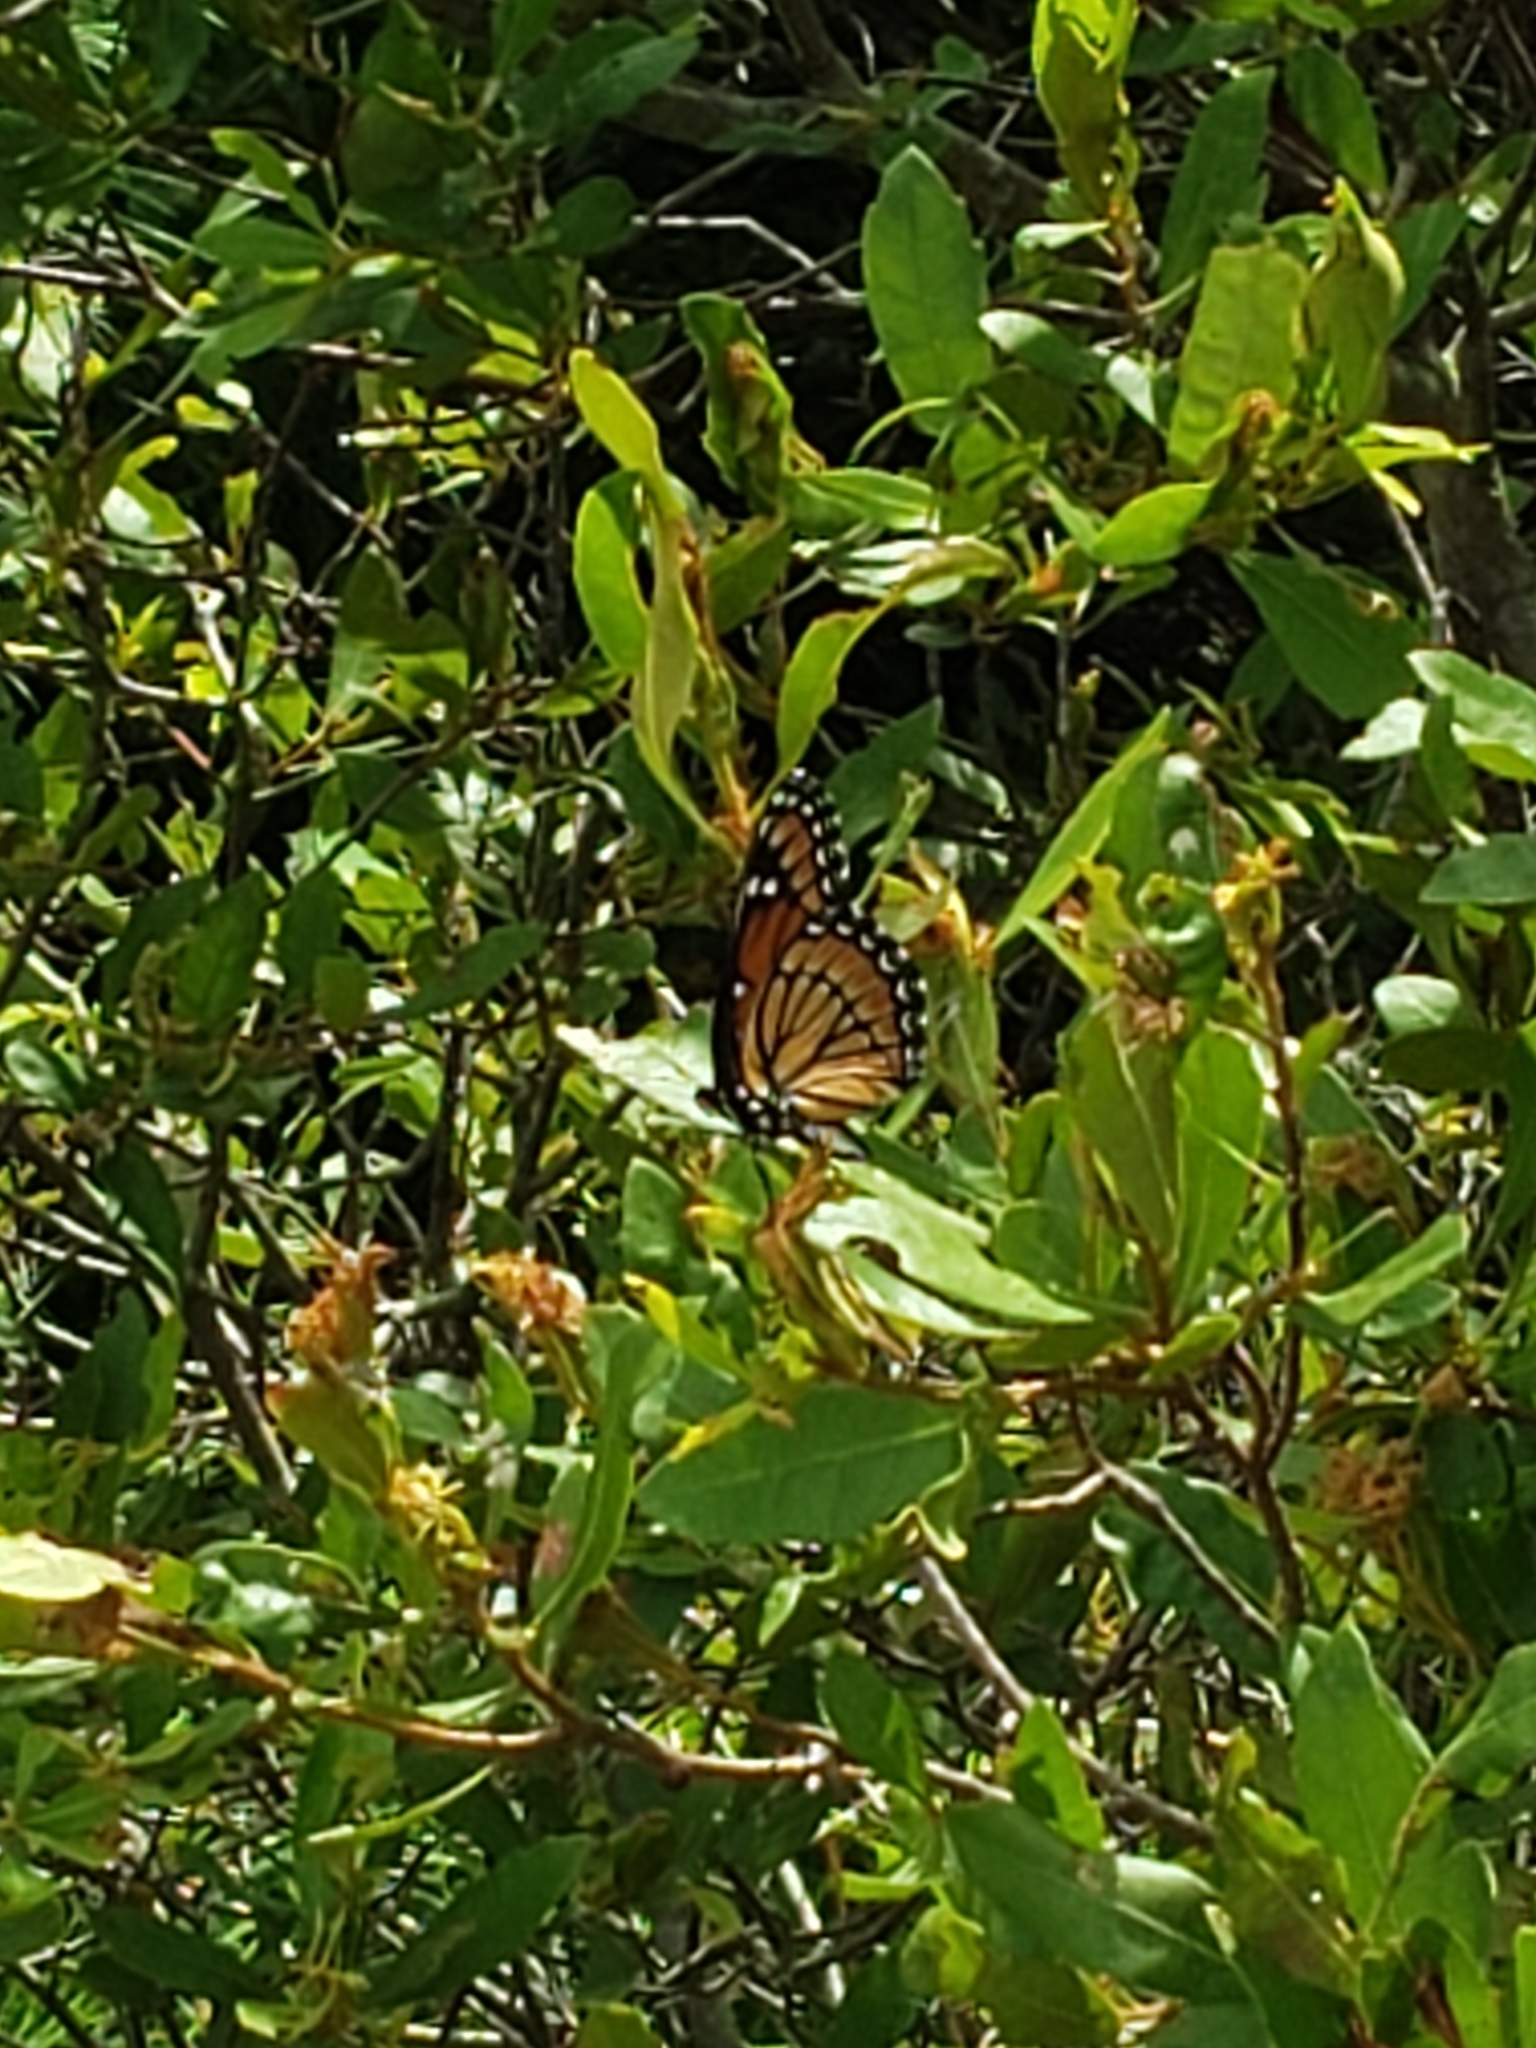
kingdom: Animalia
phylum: Arthropoda
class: Insecta
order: Lepidoptera
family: Nymphalidae
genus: Limenitis
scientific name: Limenitis archippus
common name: Viceroy
